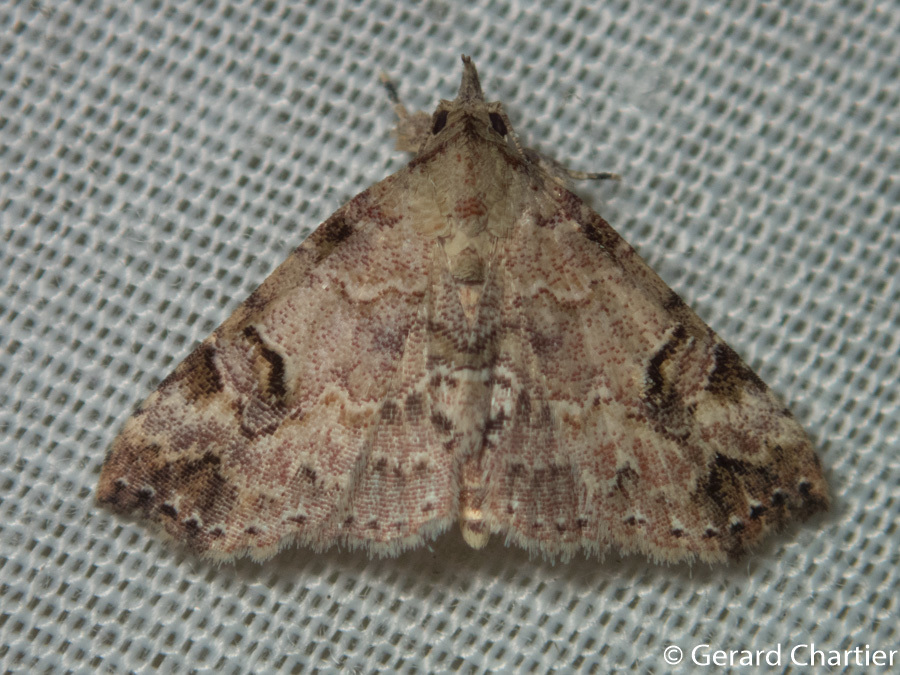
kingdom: Animalia
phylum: Arthropoda
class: Insecta
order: Lepidoptera
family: Erebidae
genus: Tipasa
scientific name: Tipasa renalis
